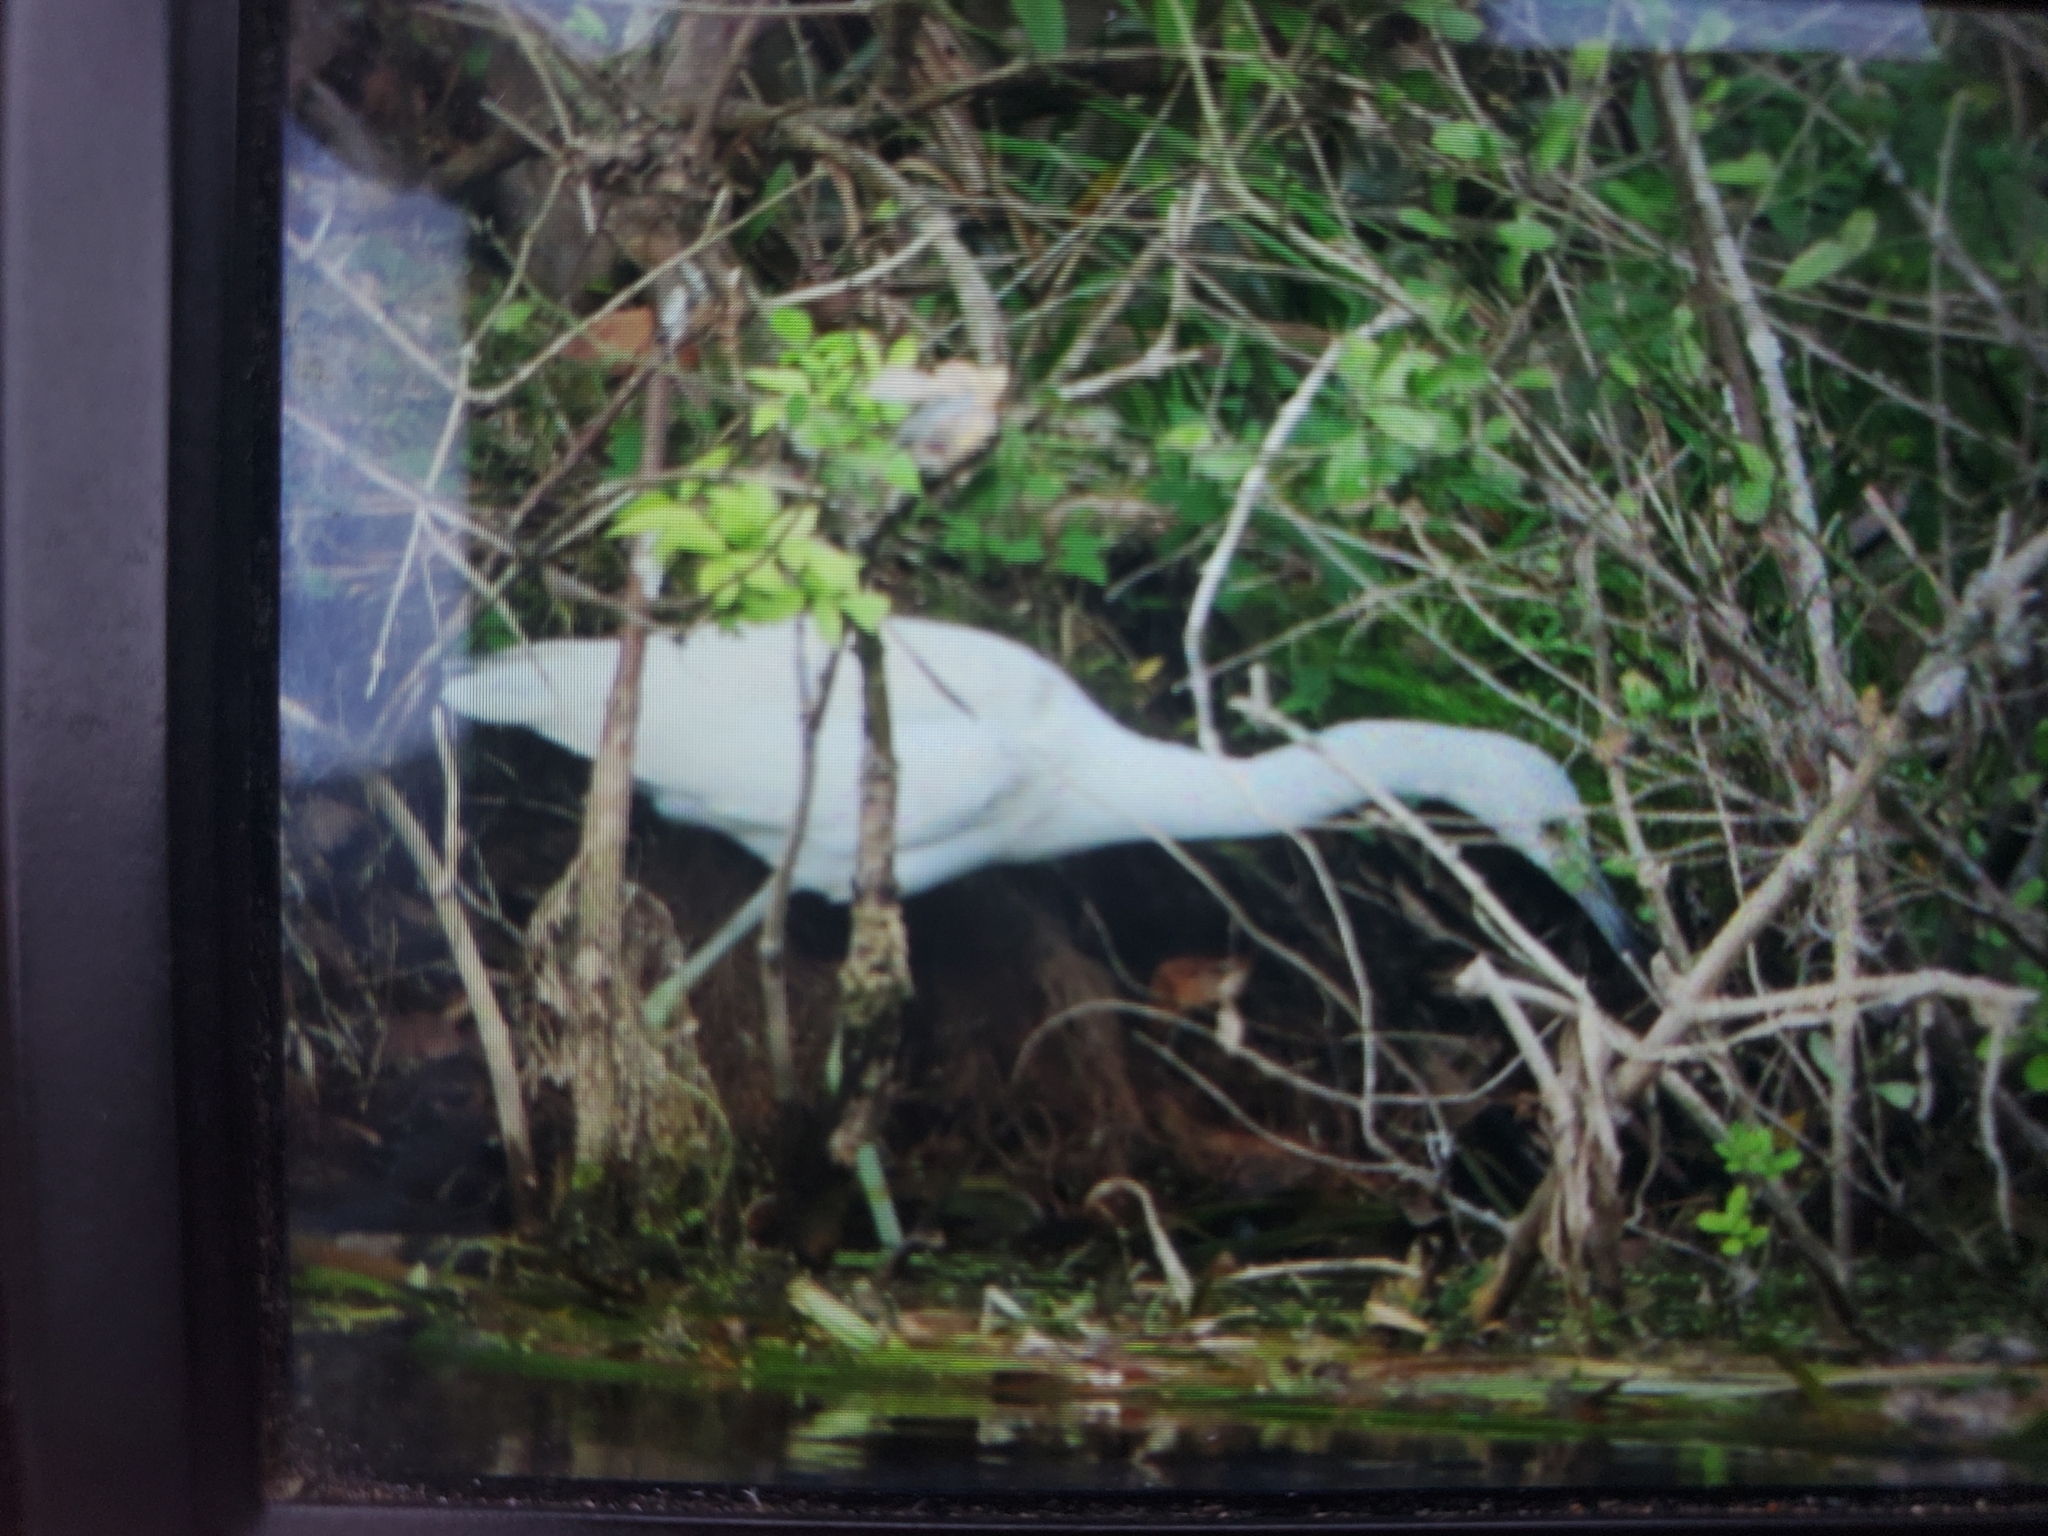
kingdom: Animalia
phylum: Chordata
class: Aves
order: Pelecaniformes
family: Ardeidae
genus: Egretta
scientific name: Egretta caerulea
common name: Little blue heron
